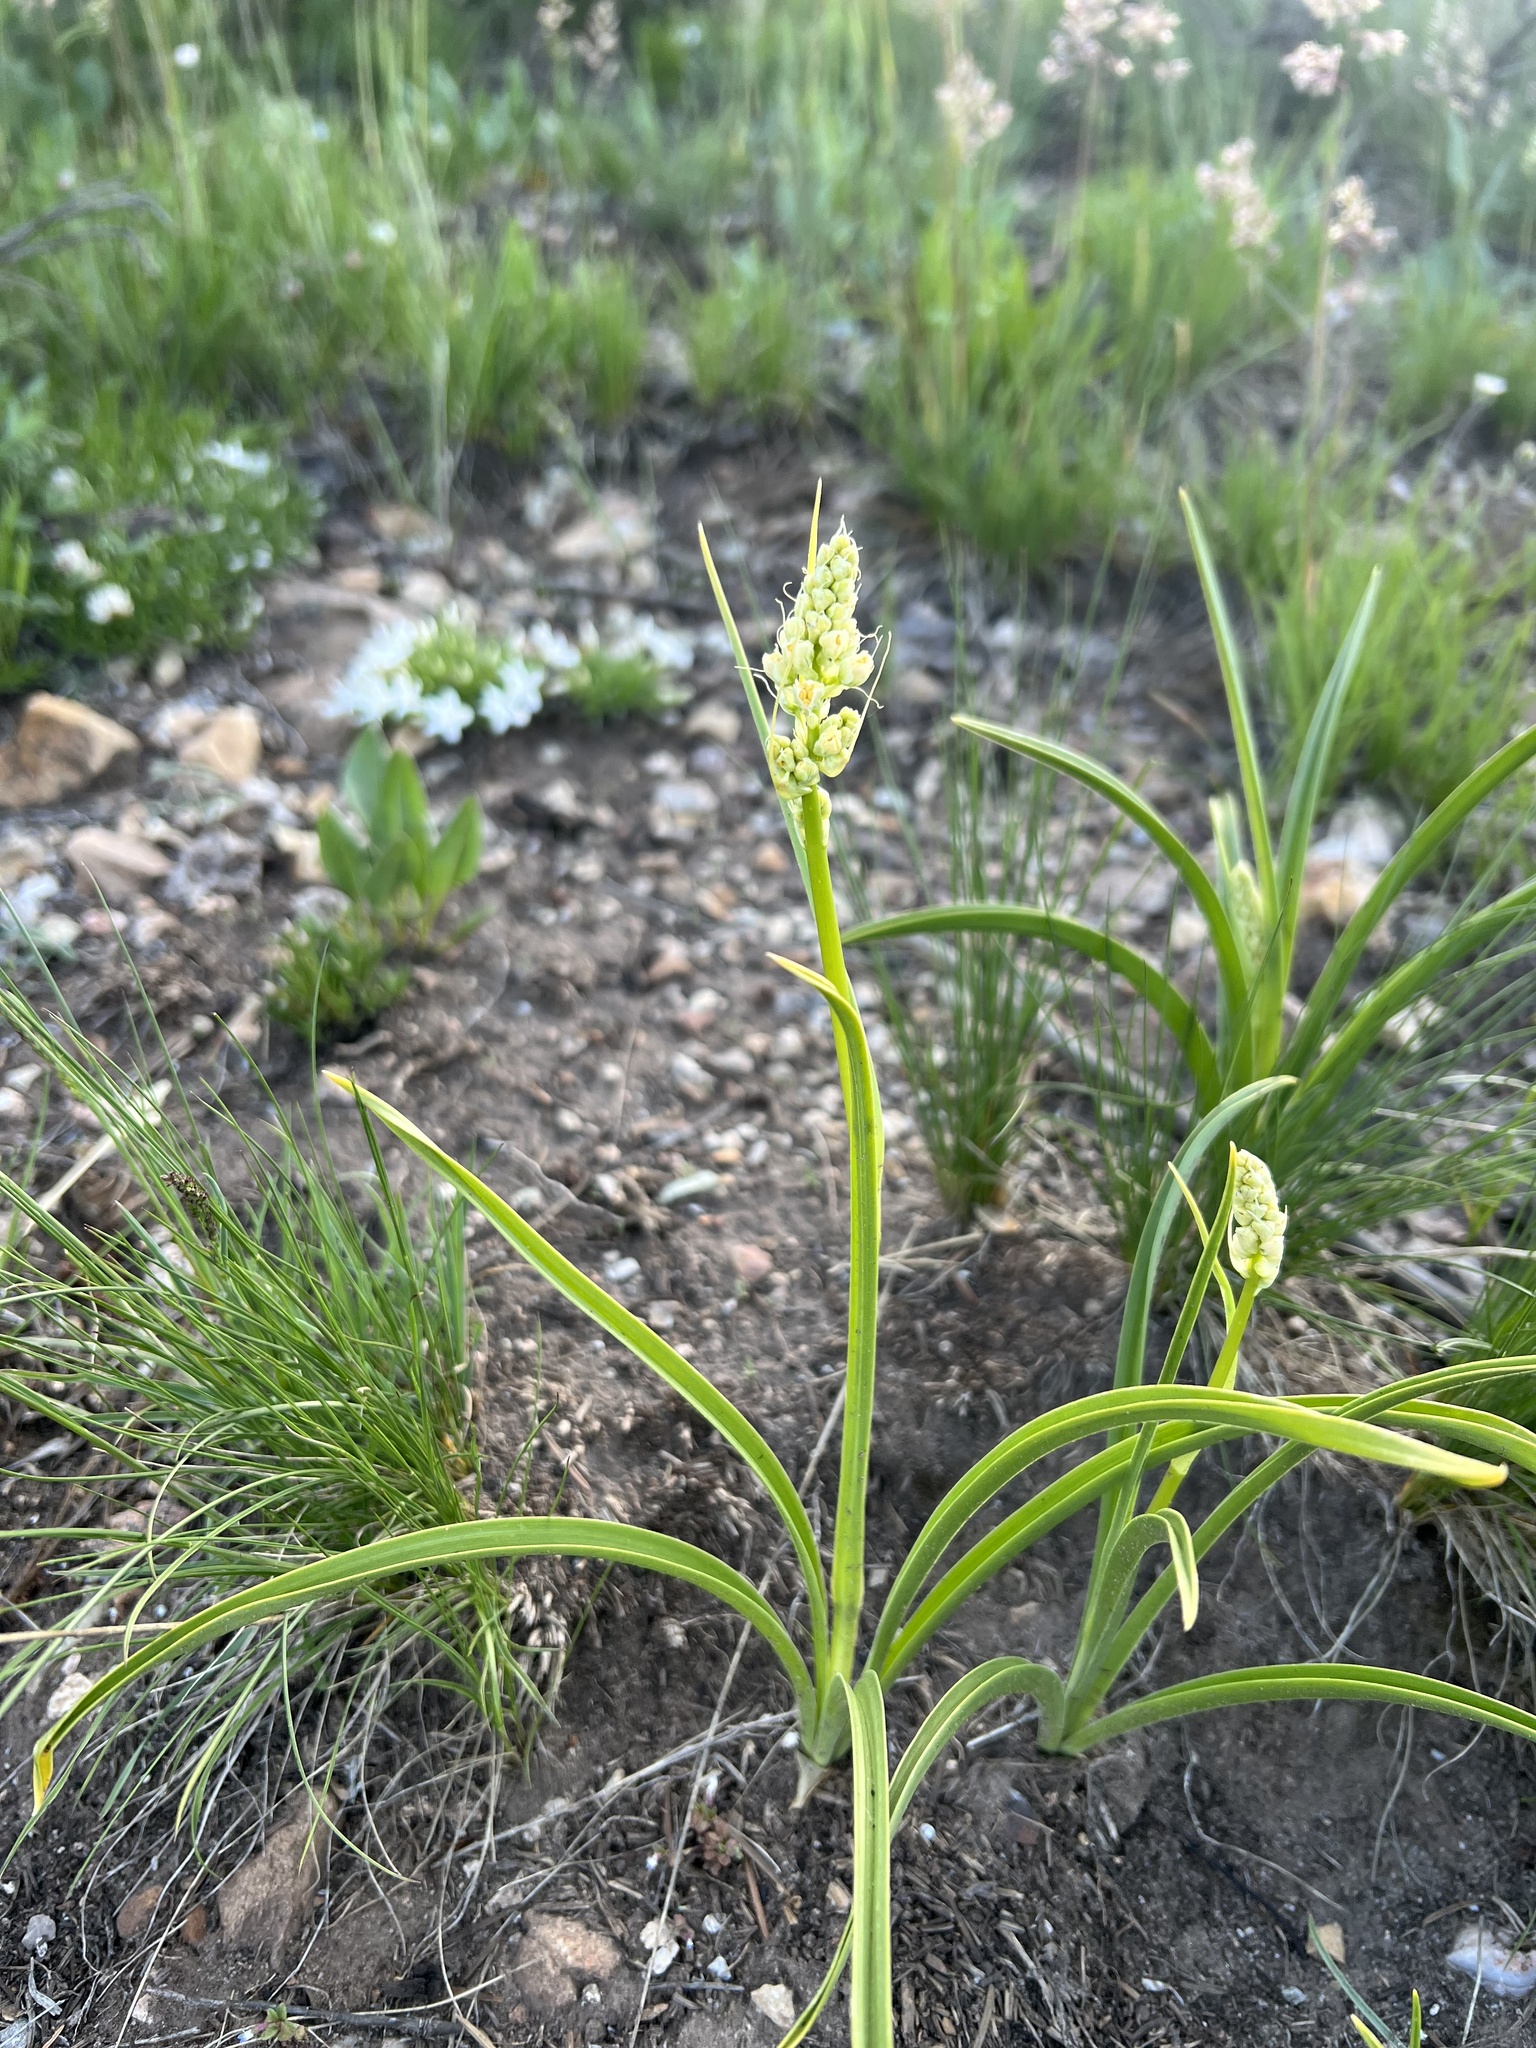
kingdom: Plantae
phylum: Tracheophyta
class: Liliopsida
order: Liliales
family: Melanthiaceae
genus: Toxicoscordion
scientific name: Toxicoscordion paniculatum
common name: Foothill death camas
